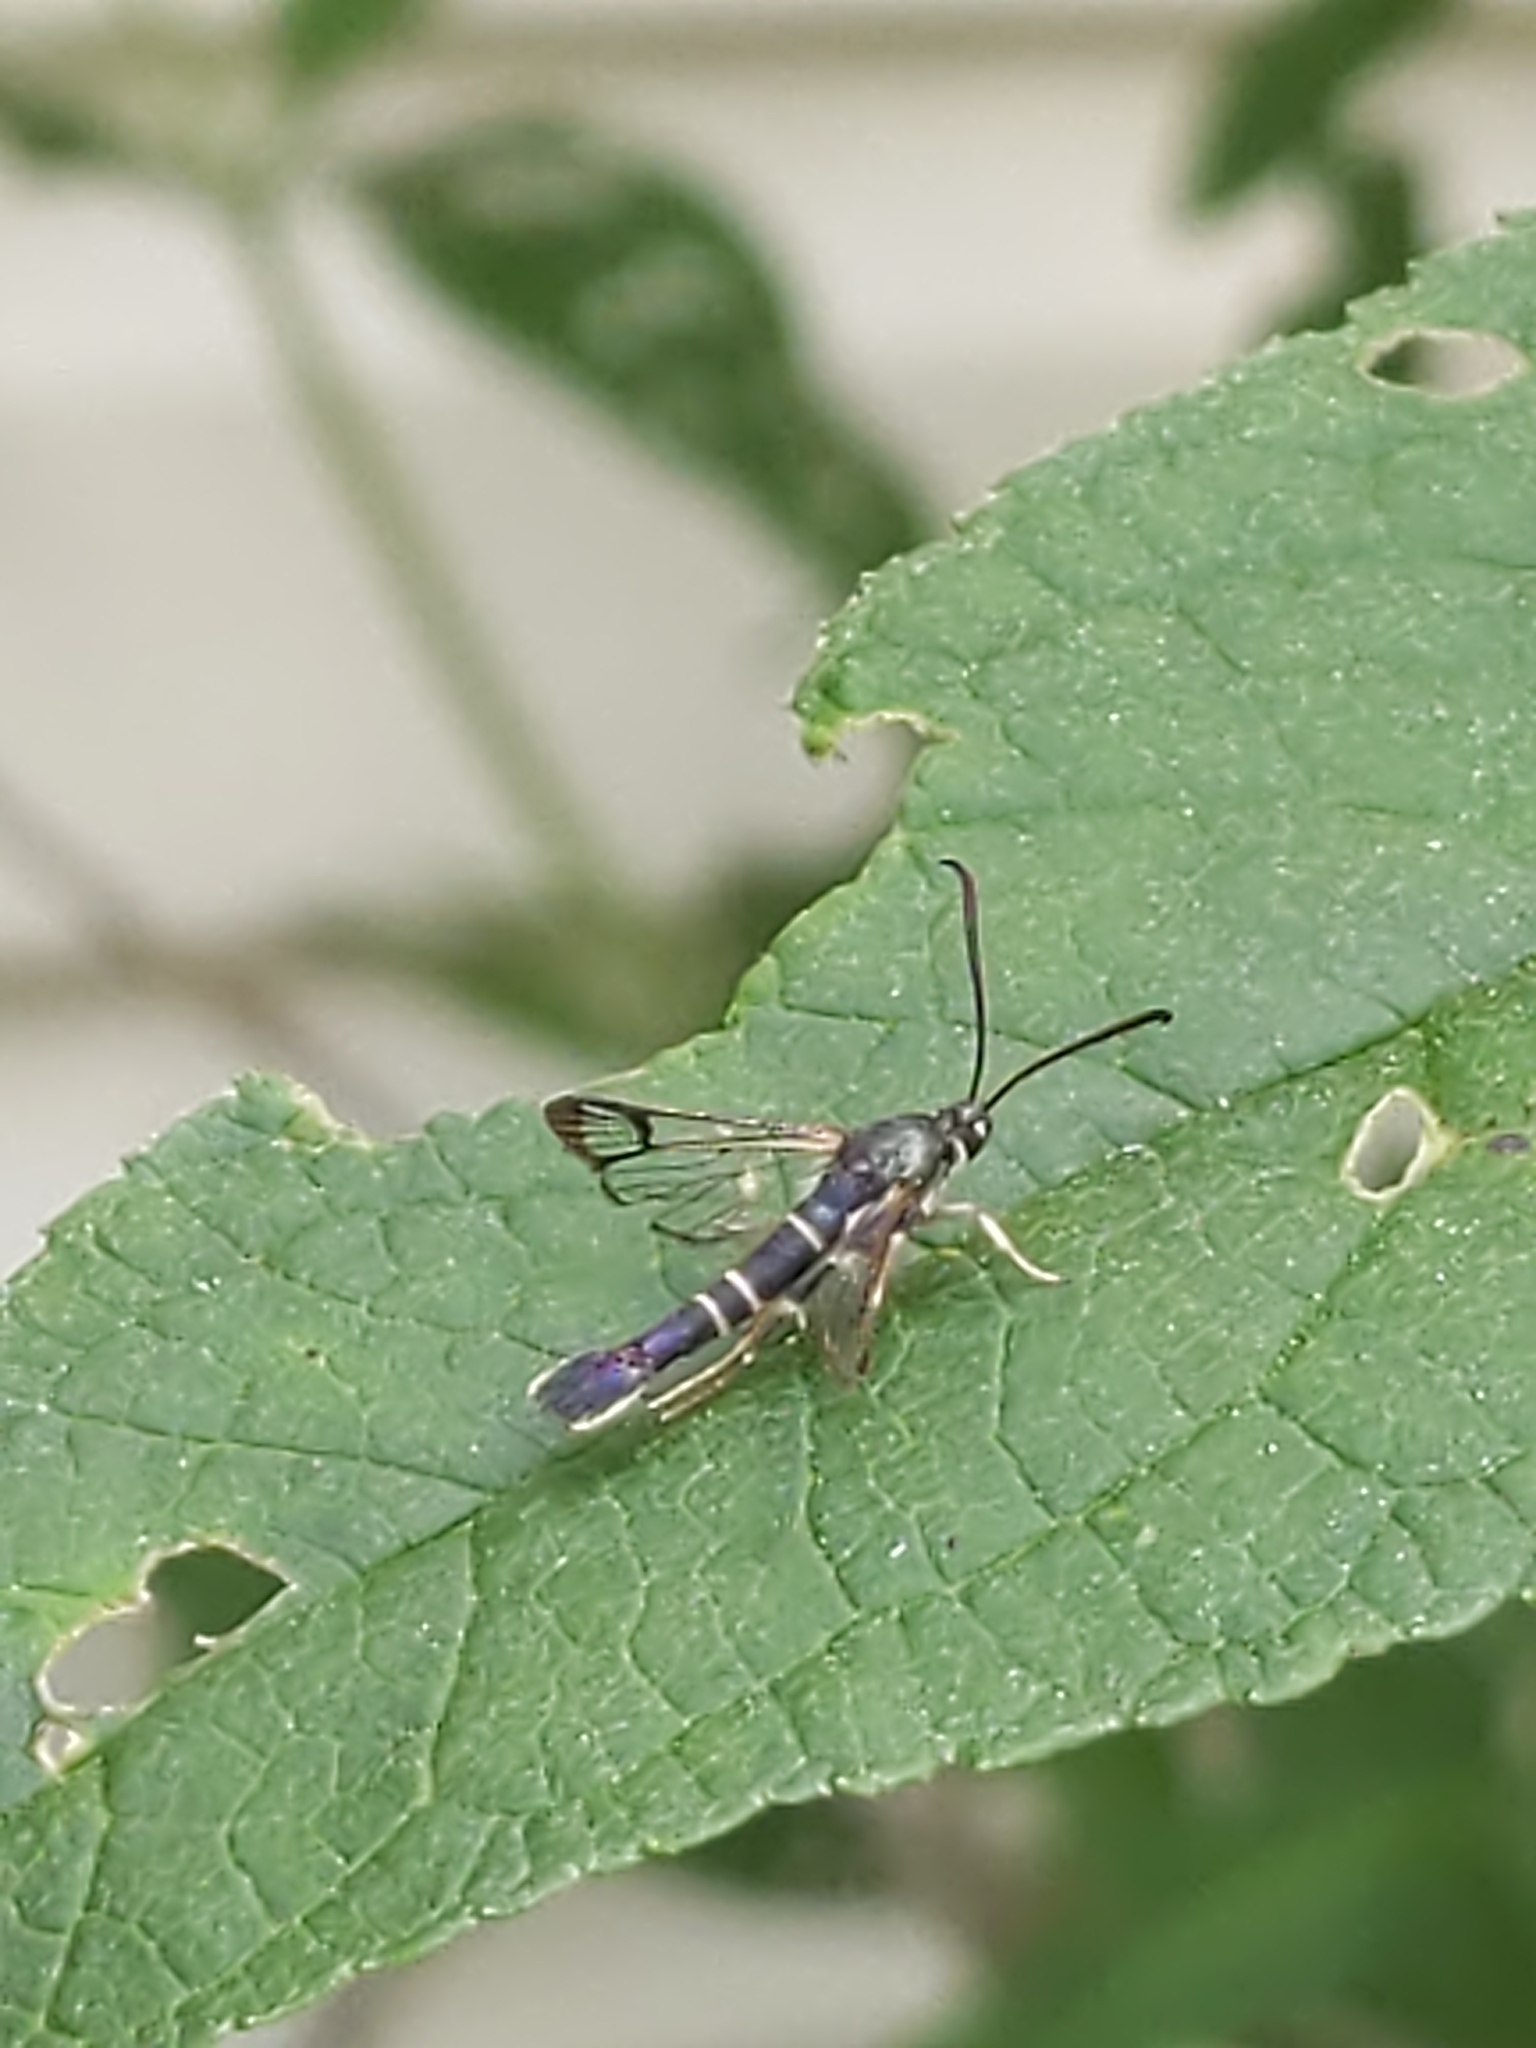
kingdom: Animalia
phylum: Arthropoda
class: Insecta
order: Lepidoptera
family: Sesiidae
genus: Synanthedon
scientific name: Synanthedon rhododendri
